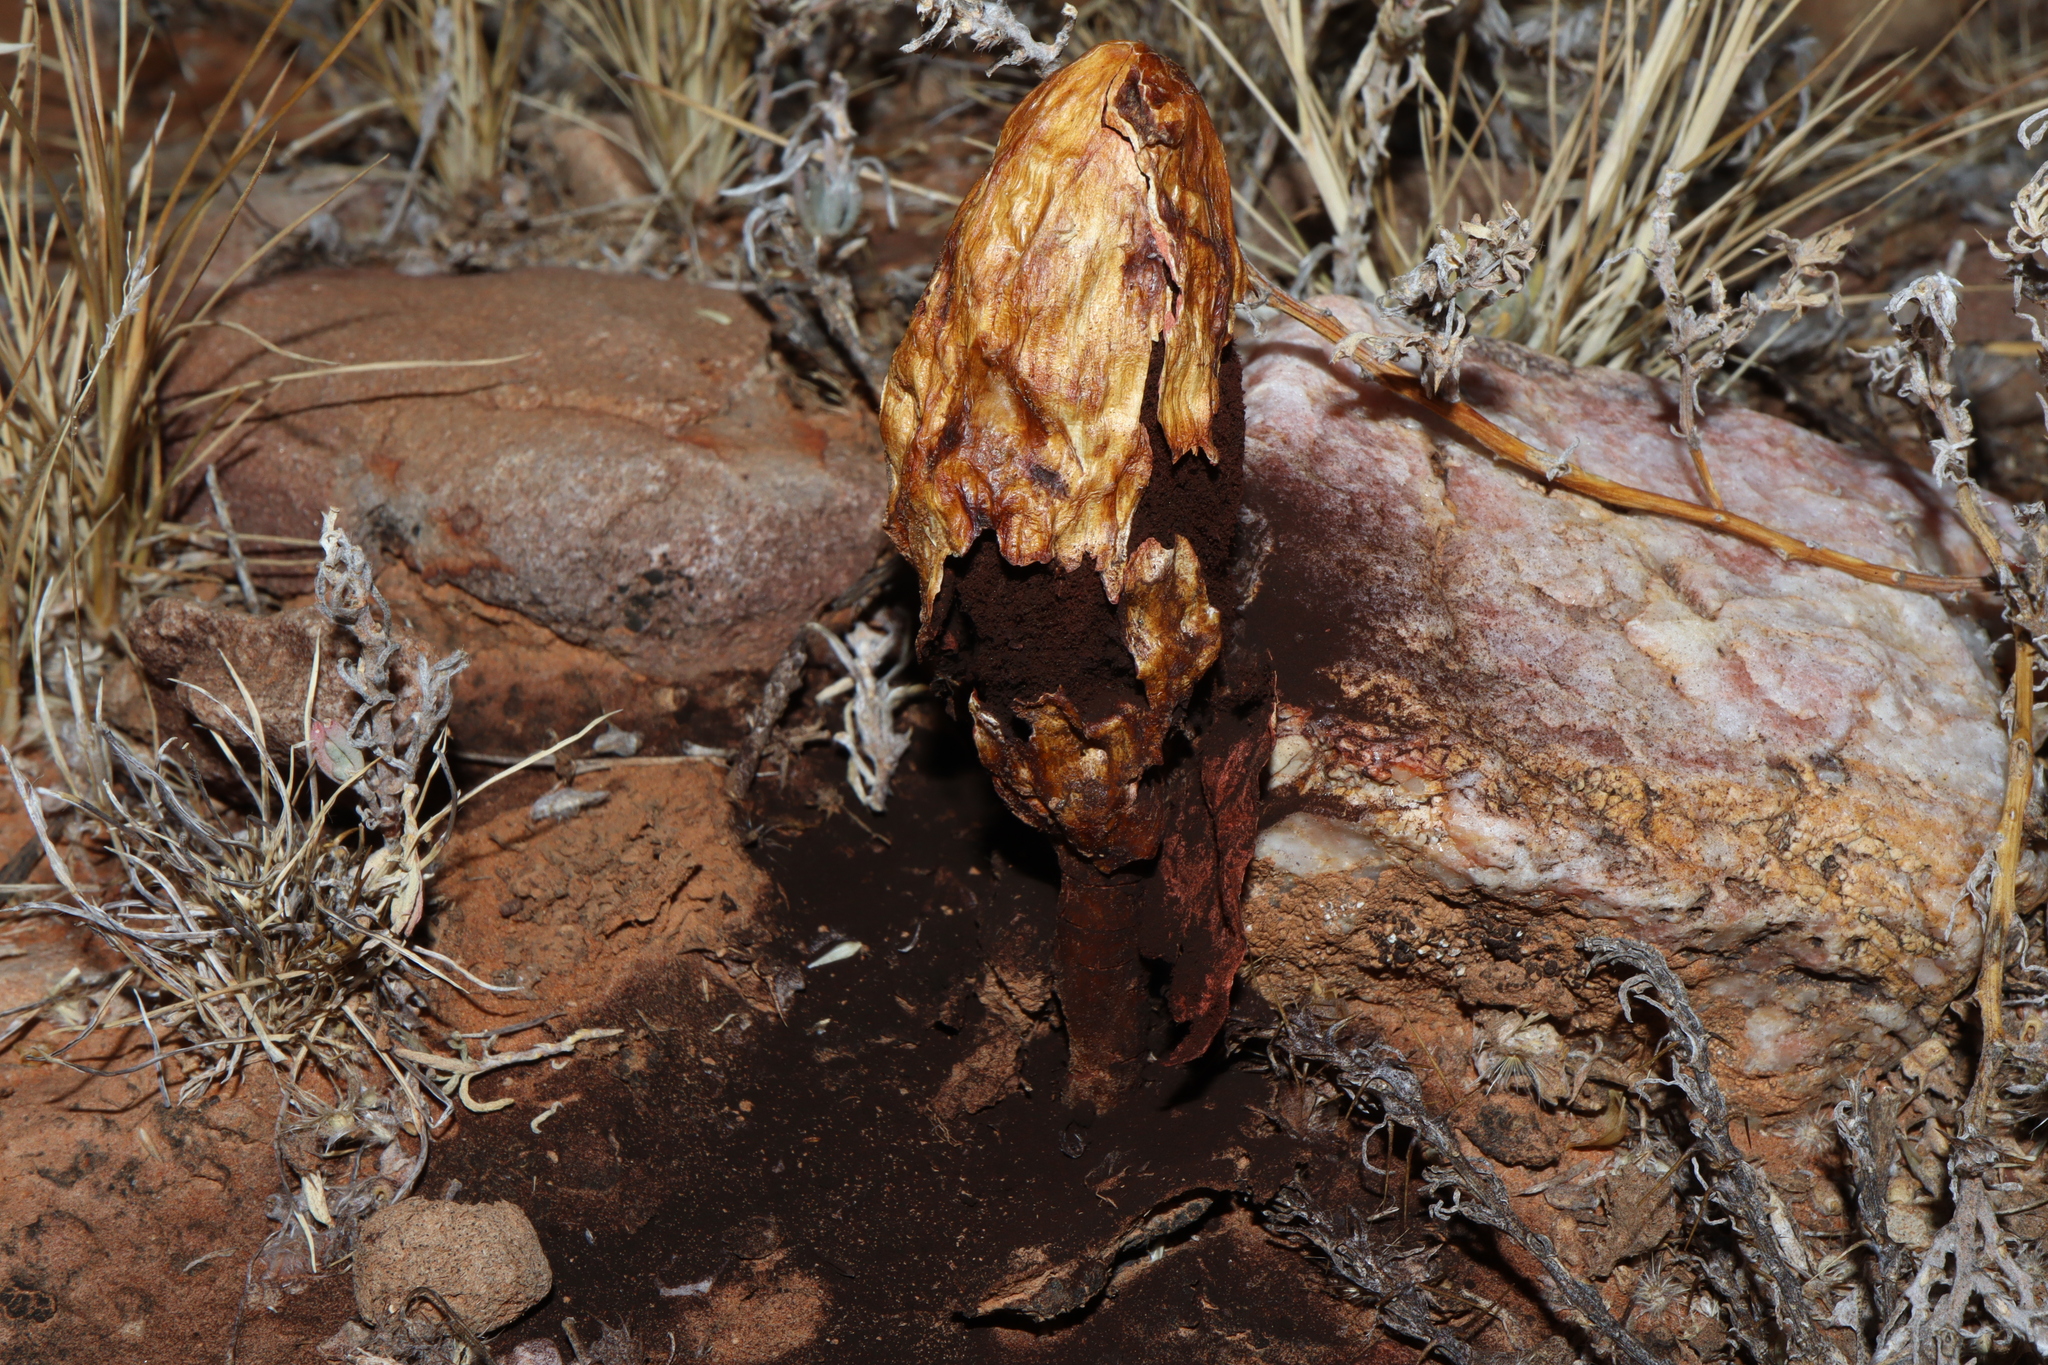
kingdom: Fungi
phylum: Basidiomycota
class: Agaricomycetes
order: Agaricales
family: Agaricaceae
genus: Podaxis
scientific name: Podaxis pistillaris
